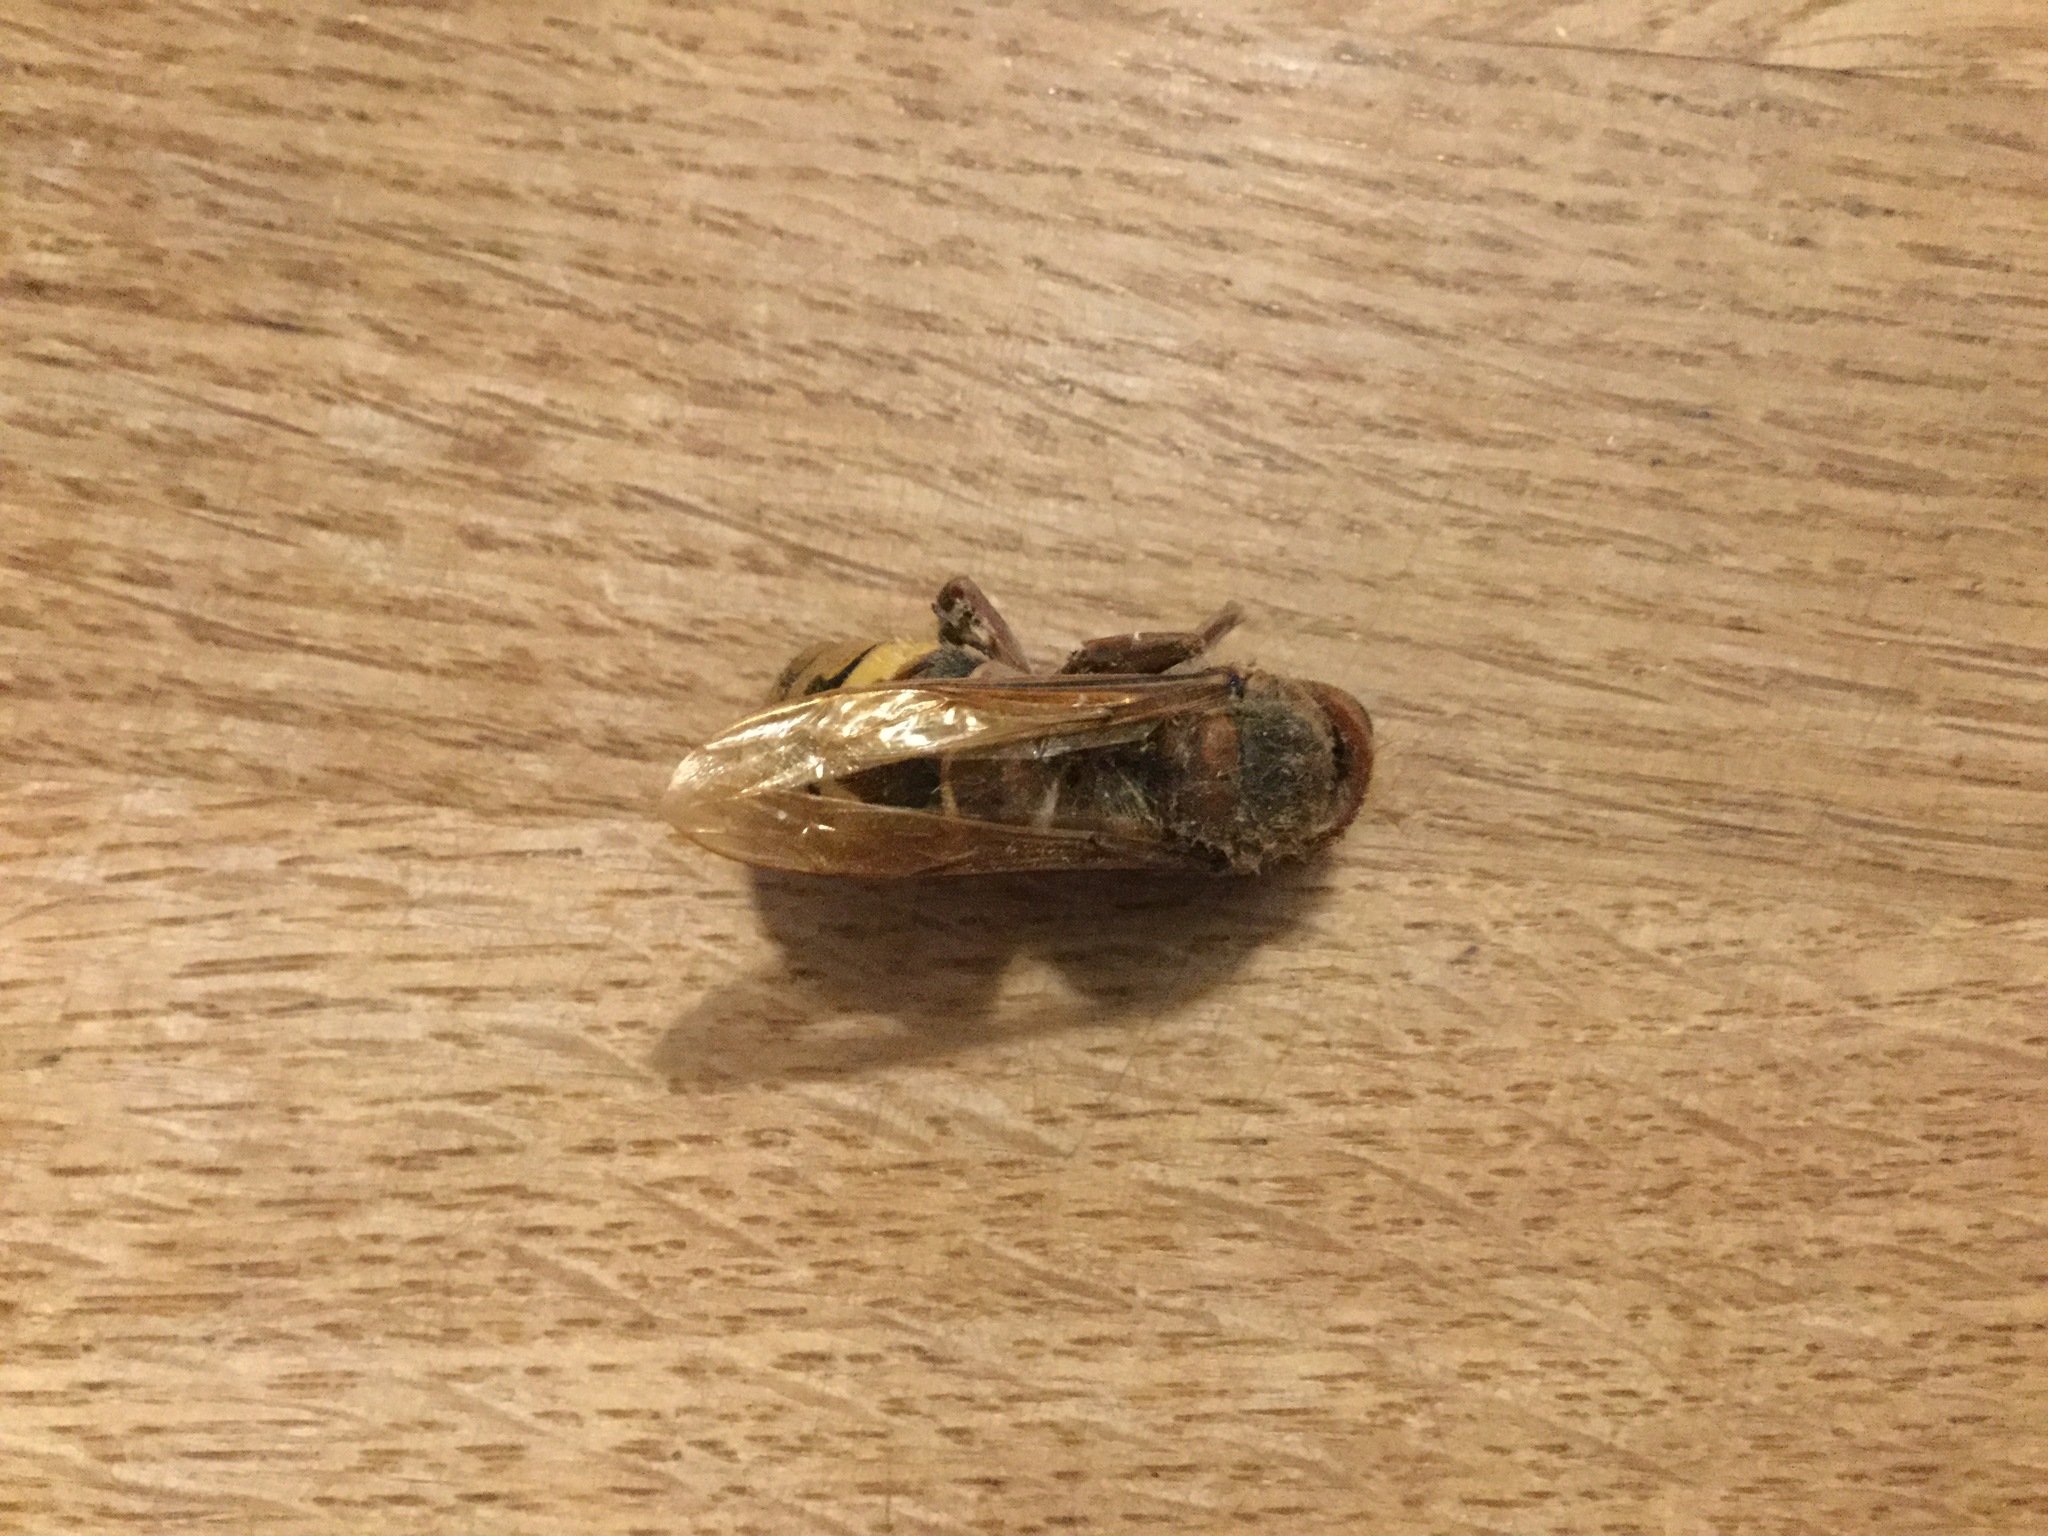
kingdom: Animalia
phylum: Arthropoda
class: Insecta
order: Hymenoptera
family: Vespidae
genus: Vespa
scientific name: Vespa crabro
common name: Hornet
